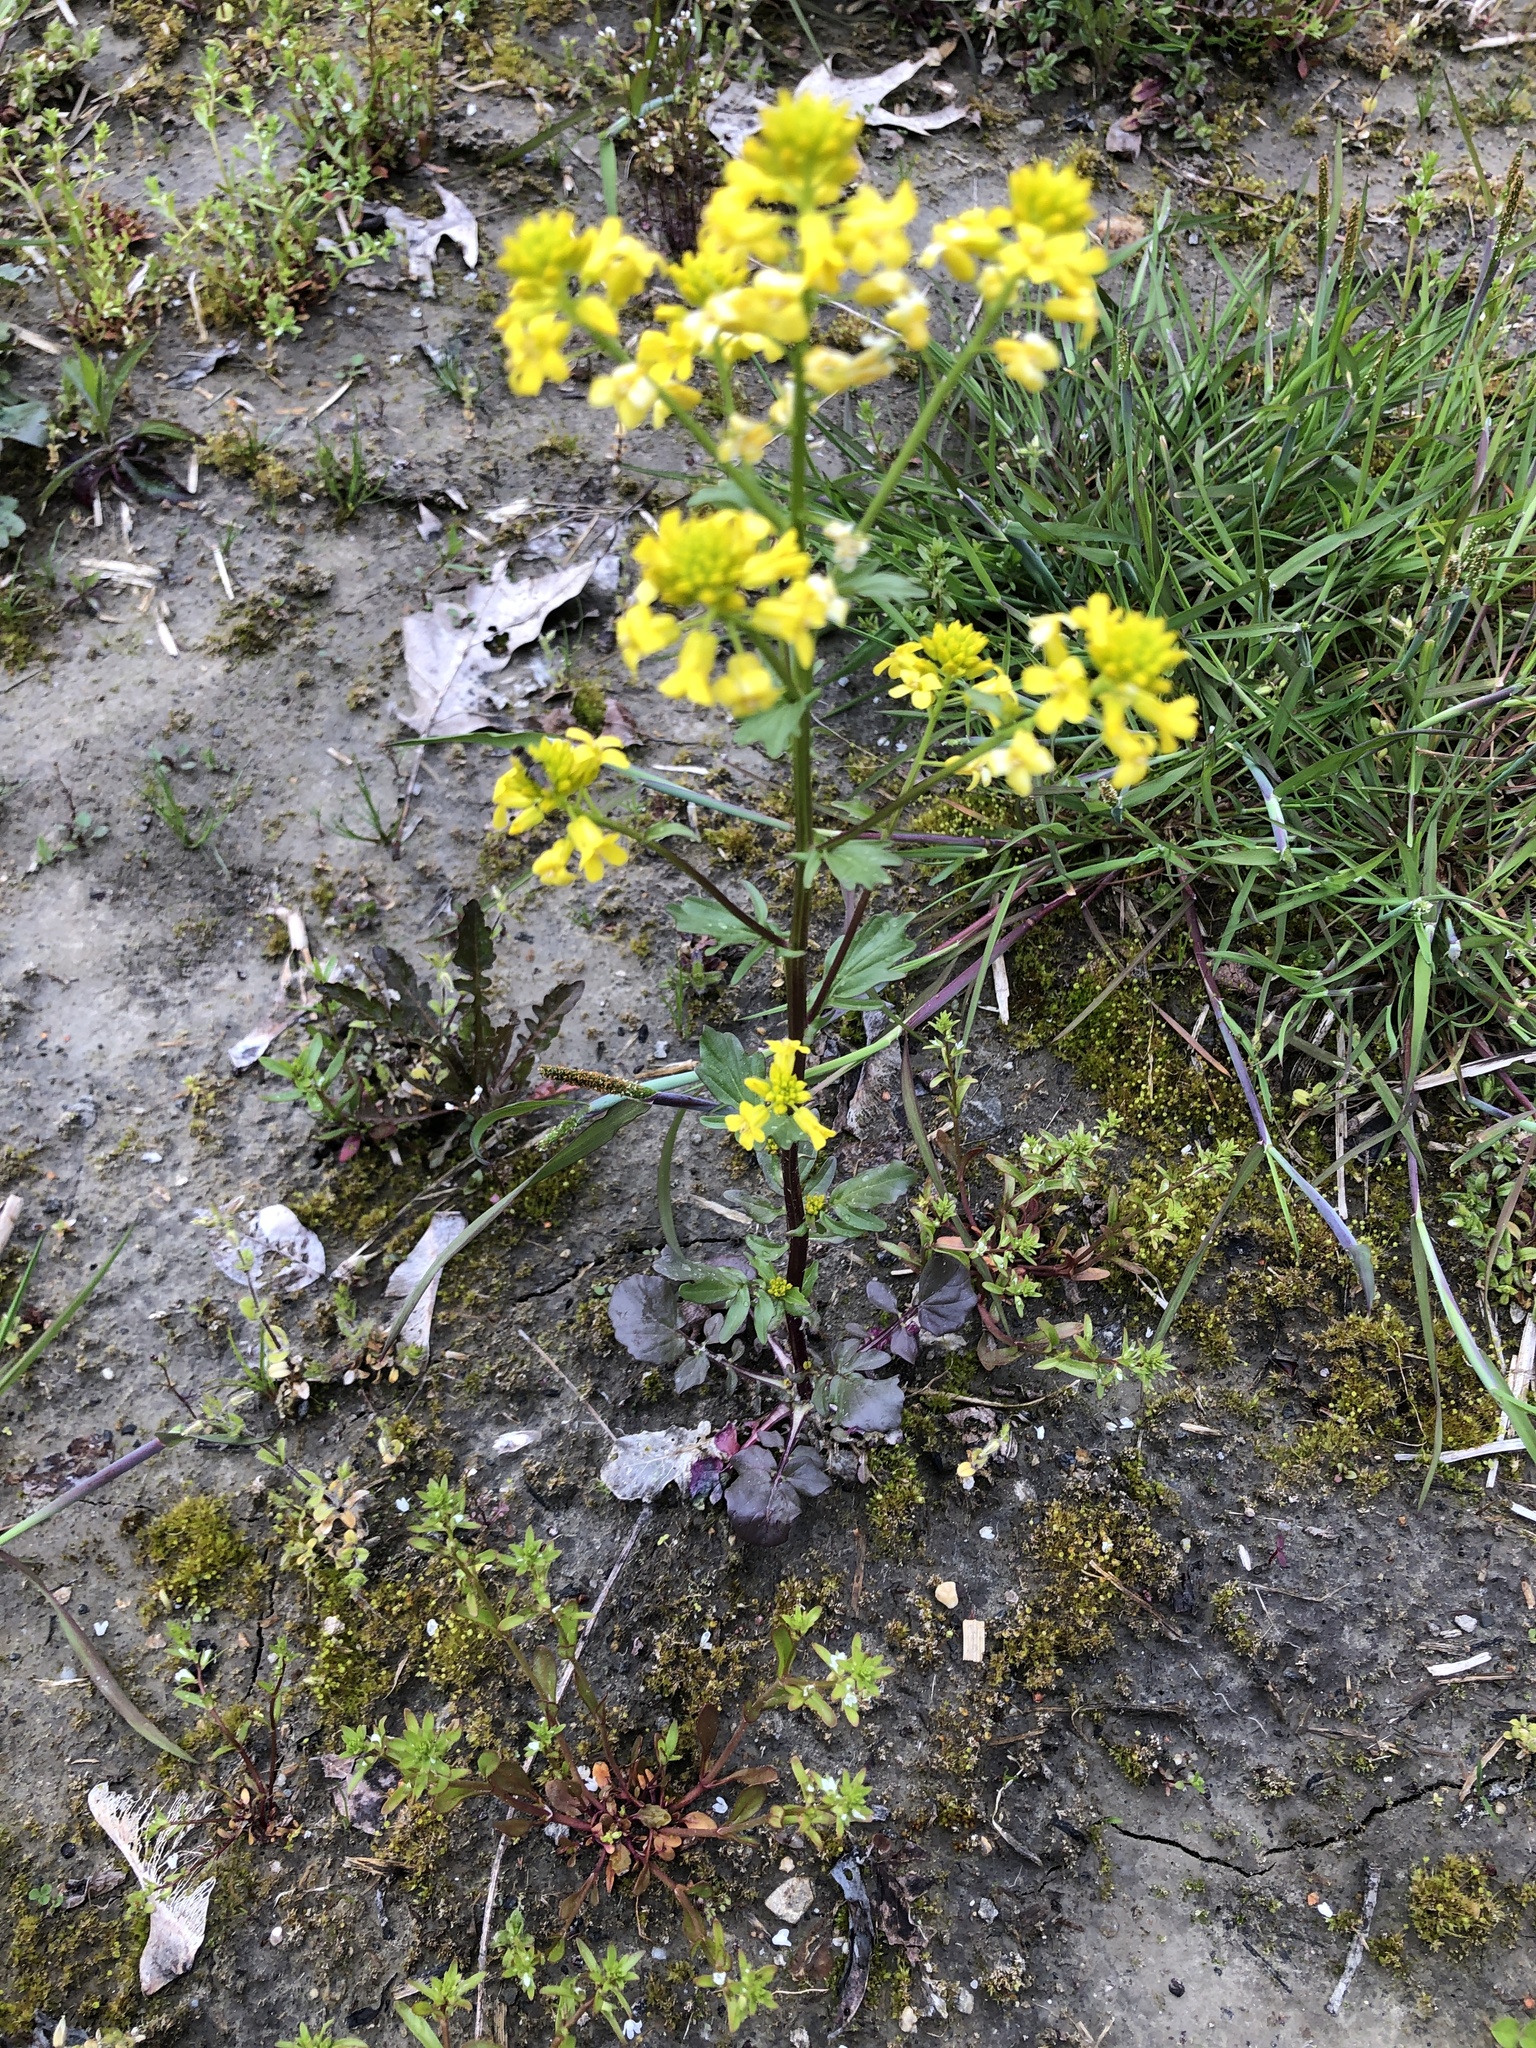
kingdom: Plantae
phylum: Tracheophyta
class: Magnoliopsida
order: Brassicales
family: Brassicaceae
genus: Barbarea
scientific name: Barbarea vulgaris
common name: Cressy-greens
